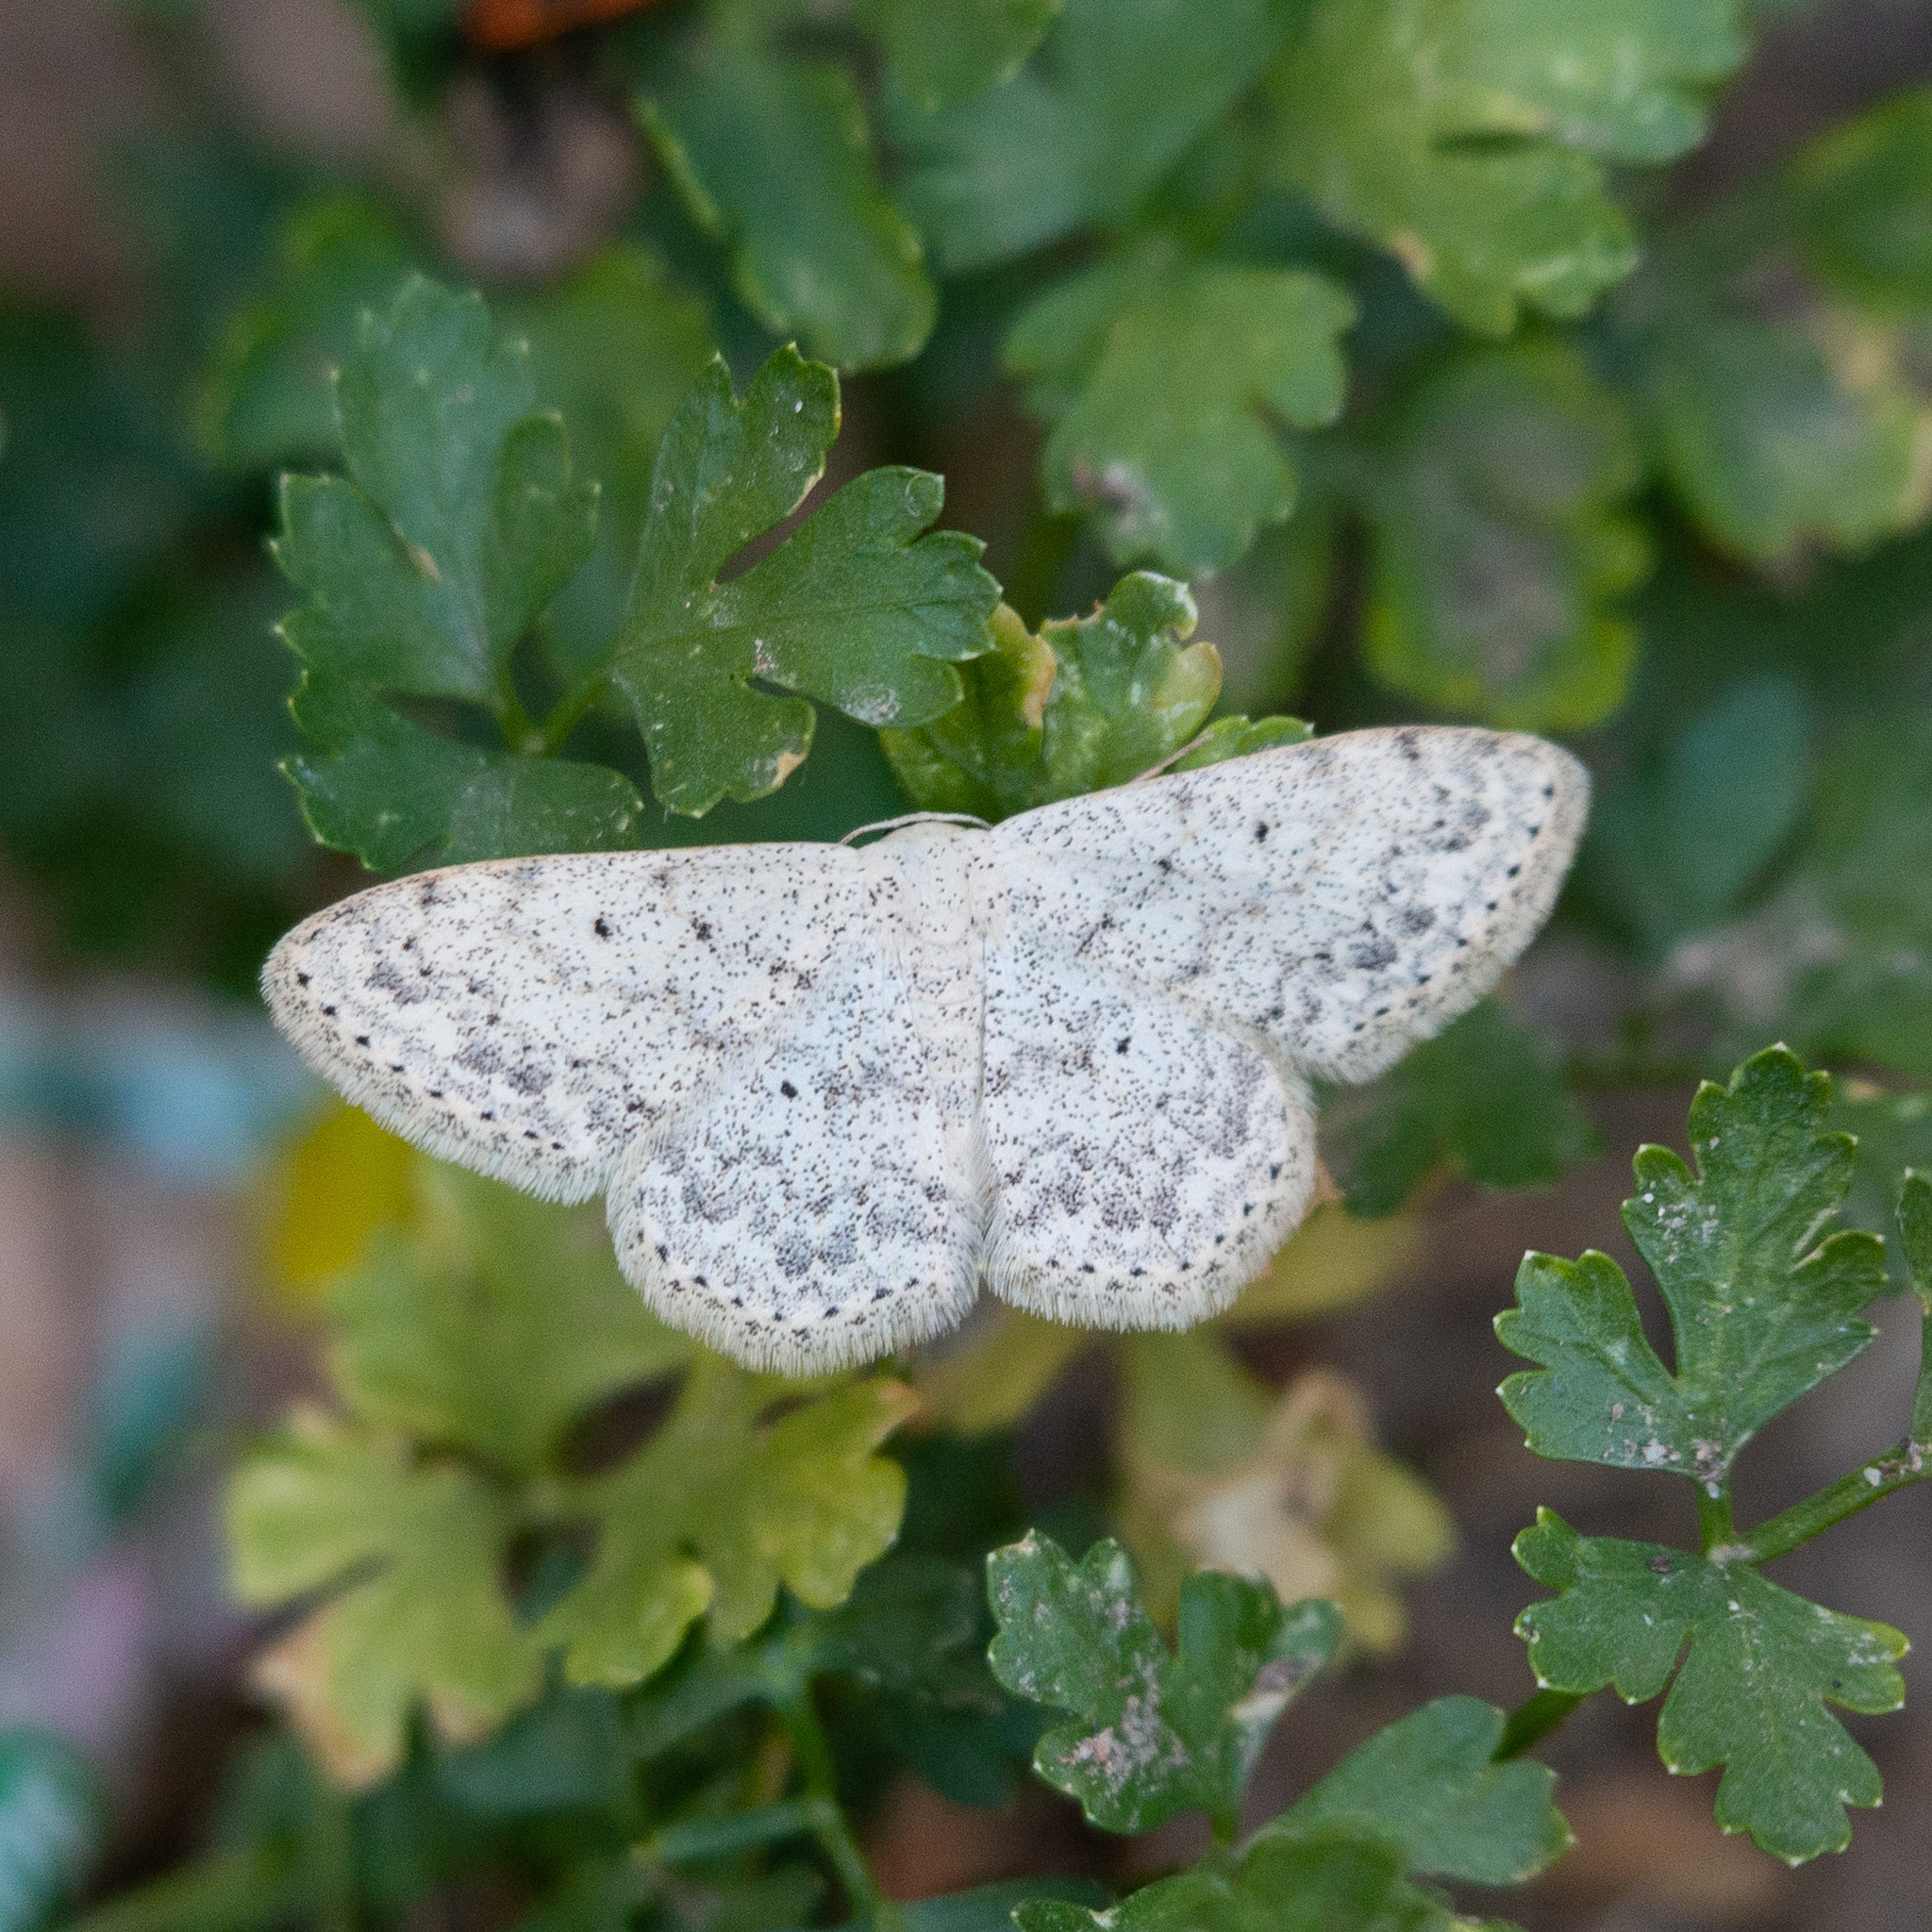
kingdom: Animalia
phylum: Arthropoda
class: Insecta
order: Lepidoptera
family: Geometridae
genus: Scopula
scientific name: Scopula marginepunctata
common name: Mullein wave
